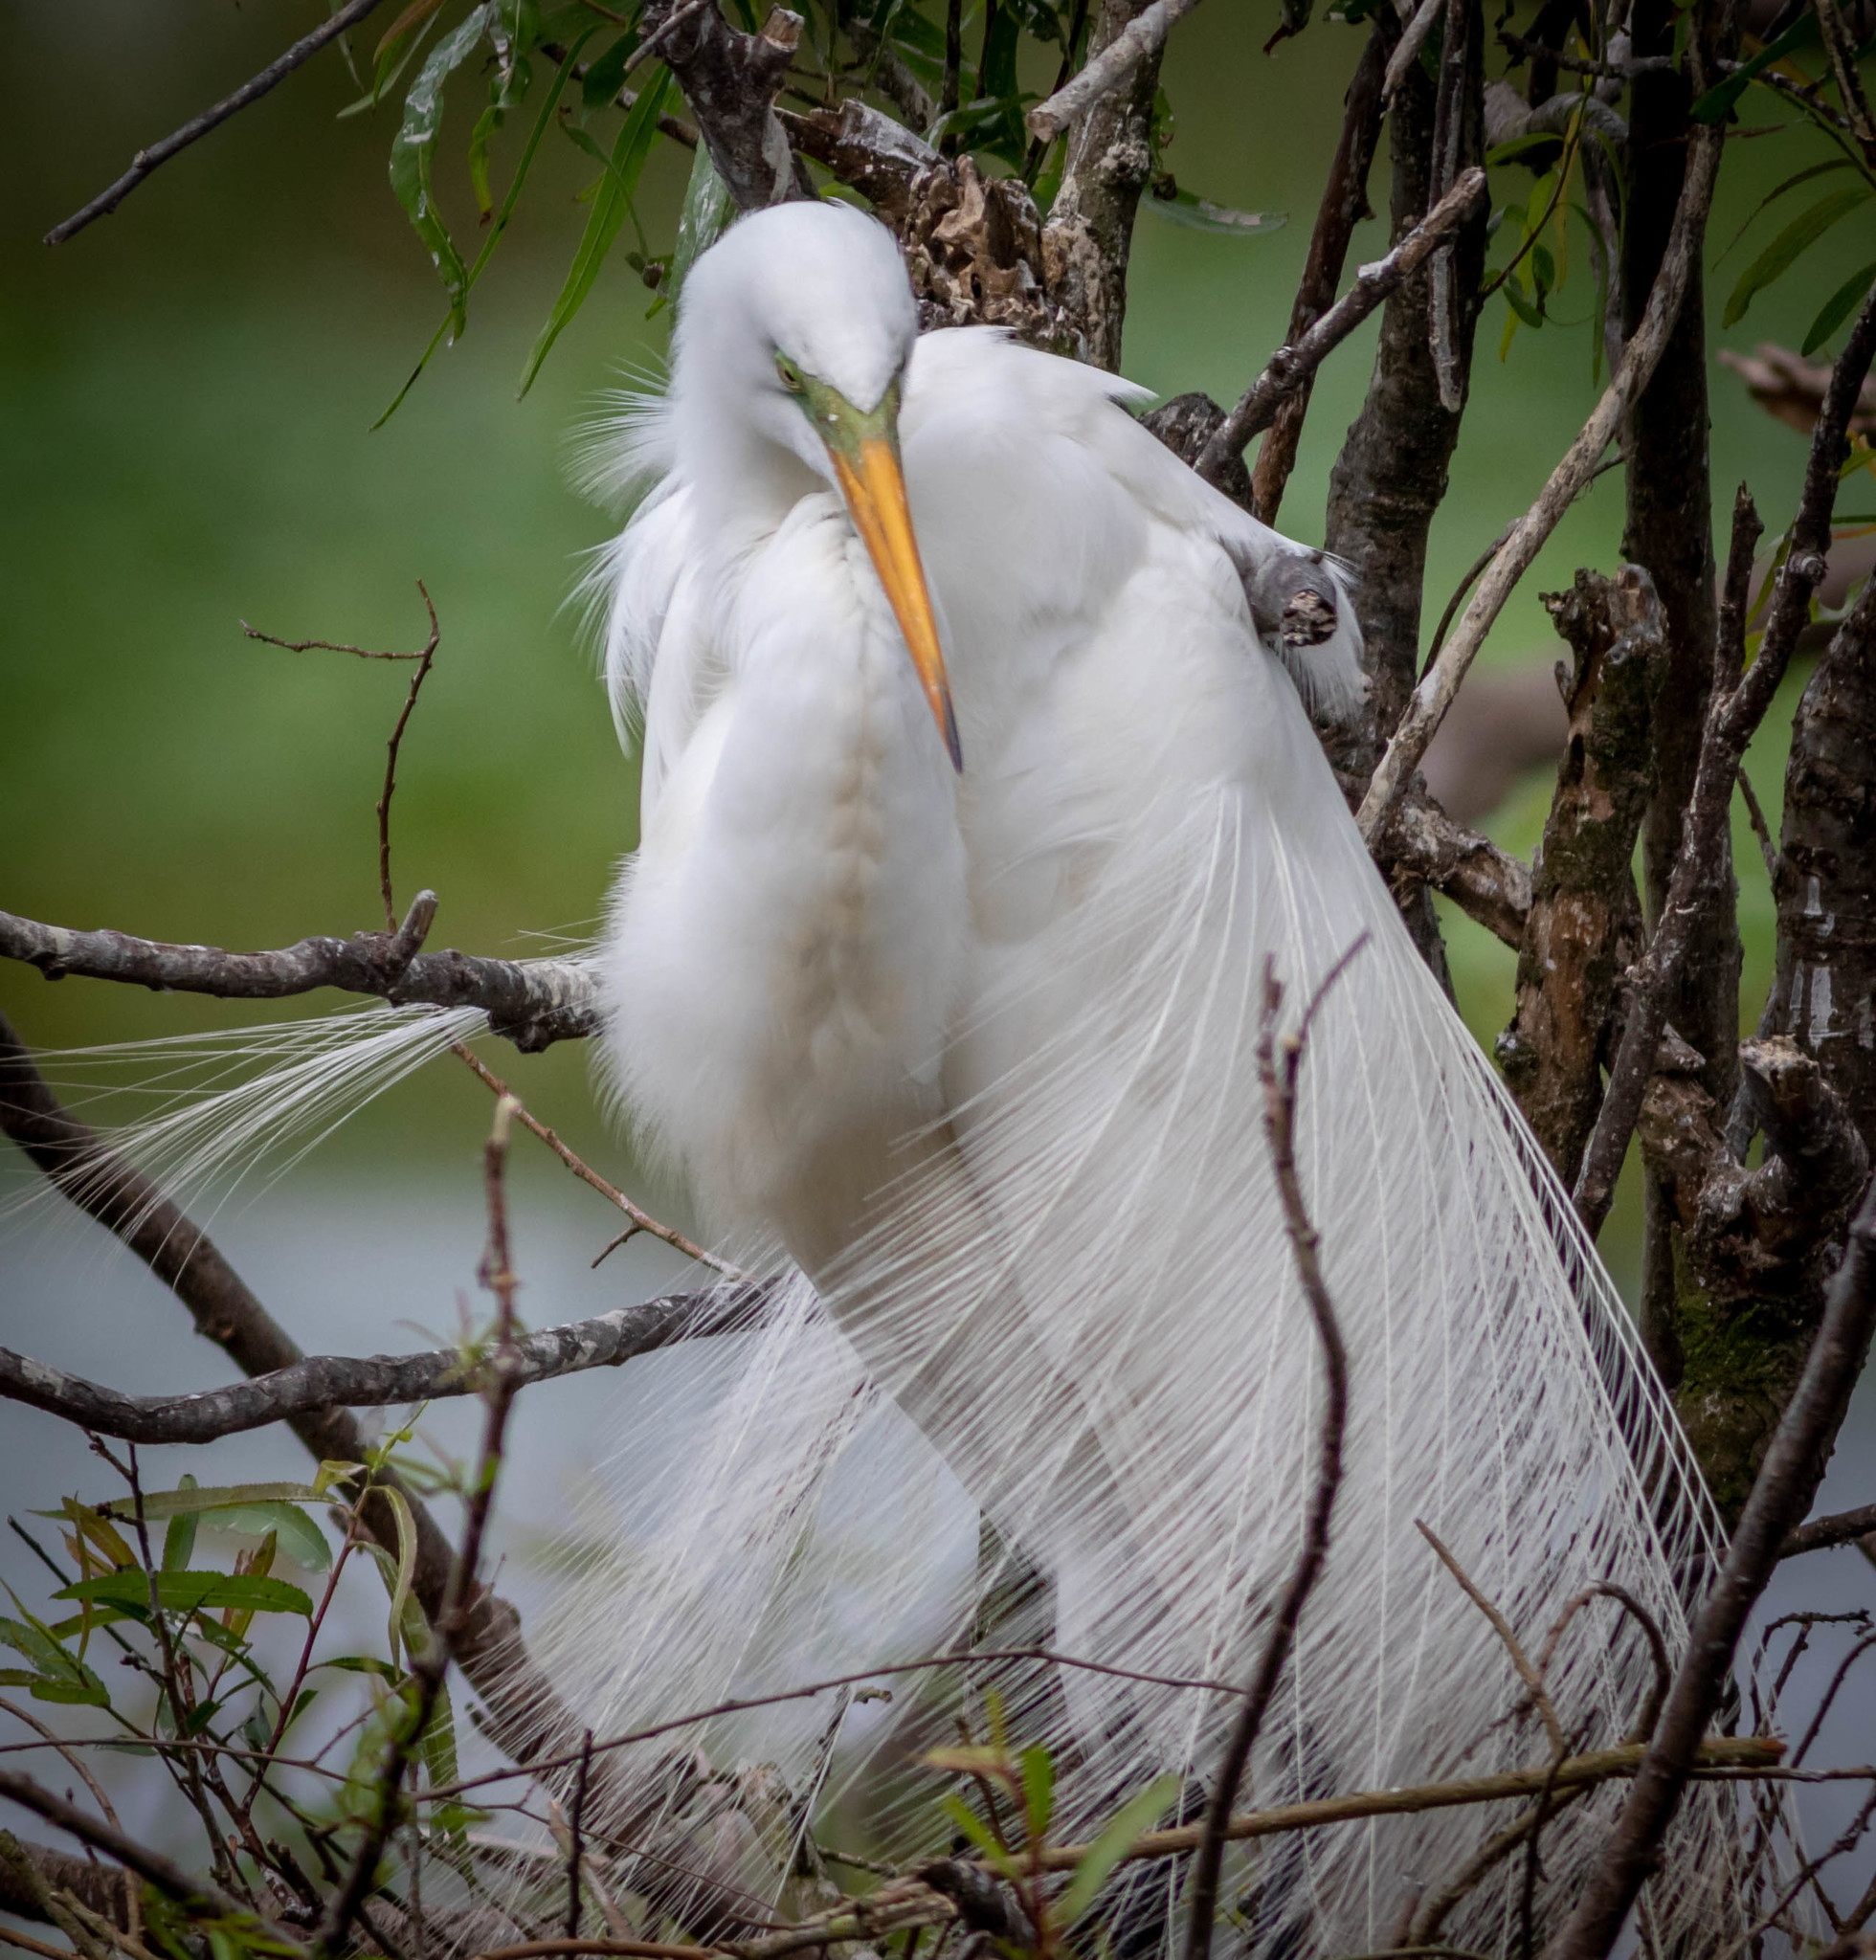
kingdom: Animalia
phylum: Chordata
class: Aves
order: Pelecaniformes
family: Ardeidae
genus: Ardea
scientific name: Ardea alba
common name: Great egret
